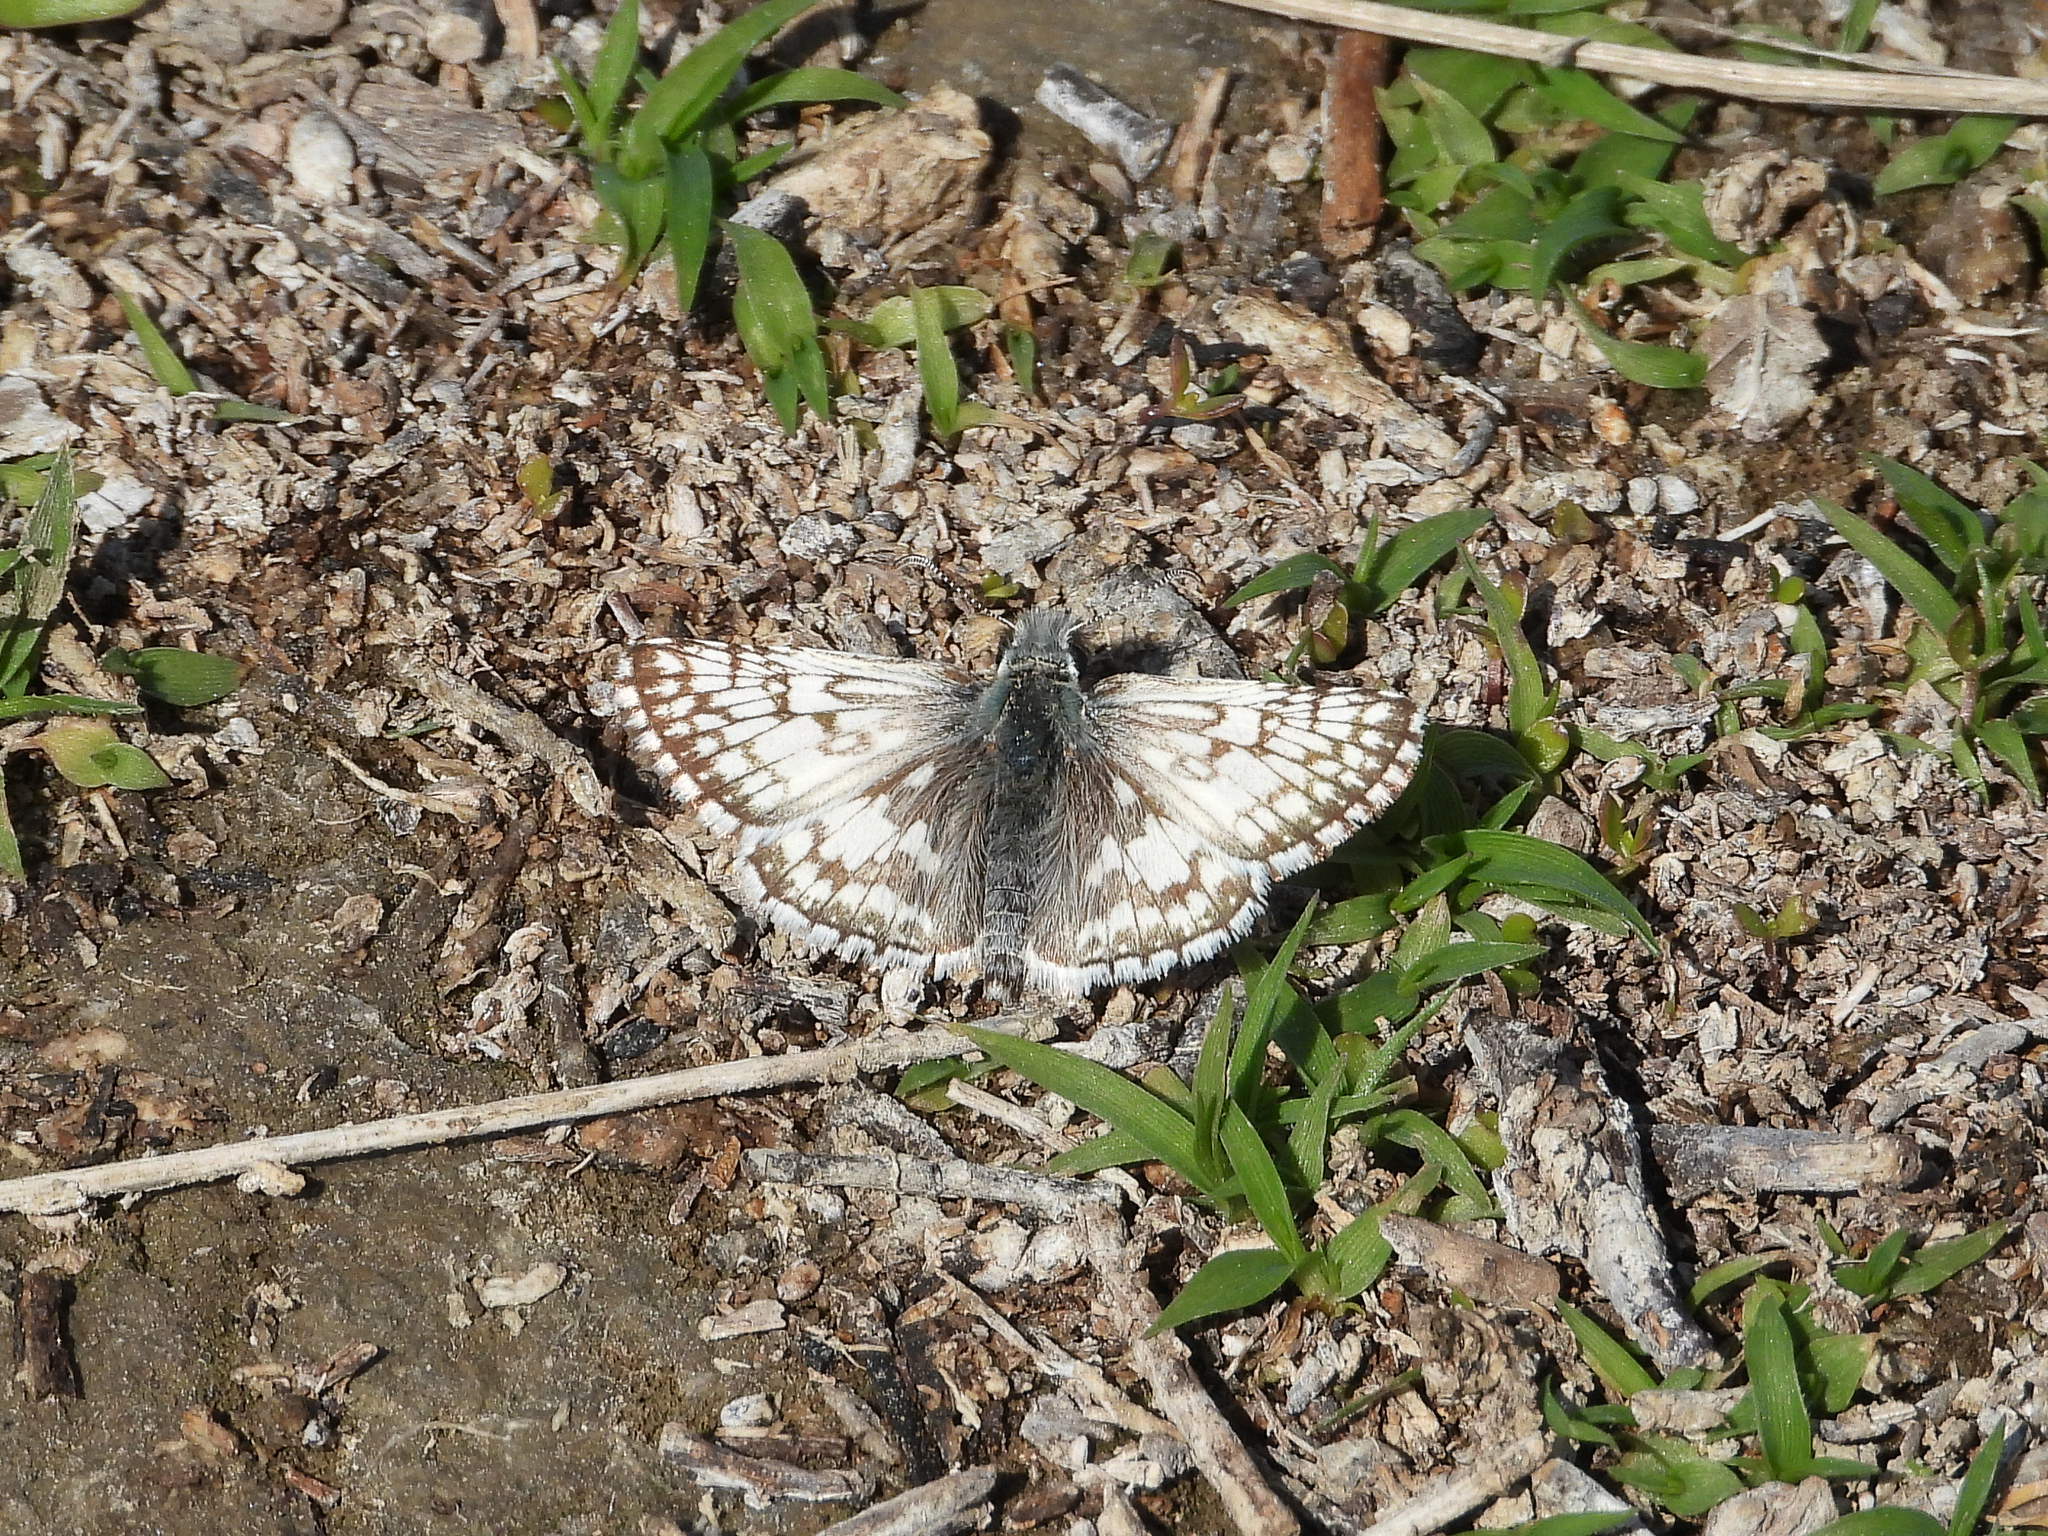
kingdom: Animalia
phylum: Arthropoda
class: Insecta
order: Lepidoptera
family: Hesperiidae
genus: Burnsius
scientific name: Burnsius albezens
